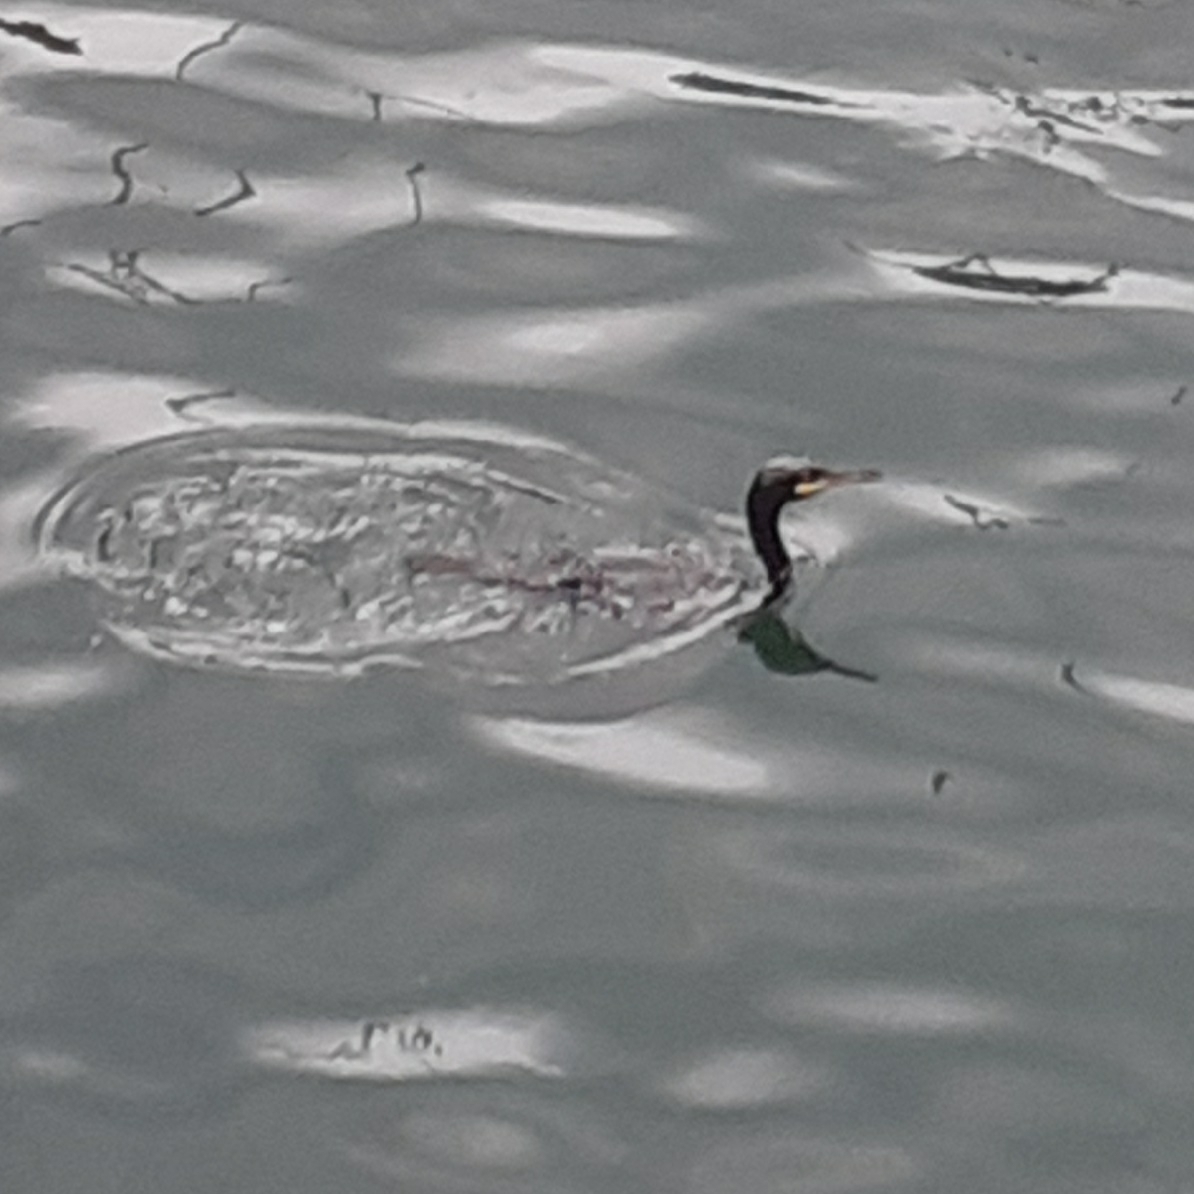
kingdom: Animalia
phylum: Chordata
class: Aves
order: Suliformes
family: Phalacrocoracidae
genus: Phalacrocorax
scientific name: Phalacrocorax aristotelis
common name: European shag
